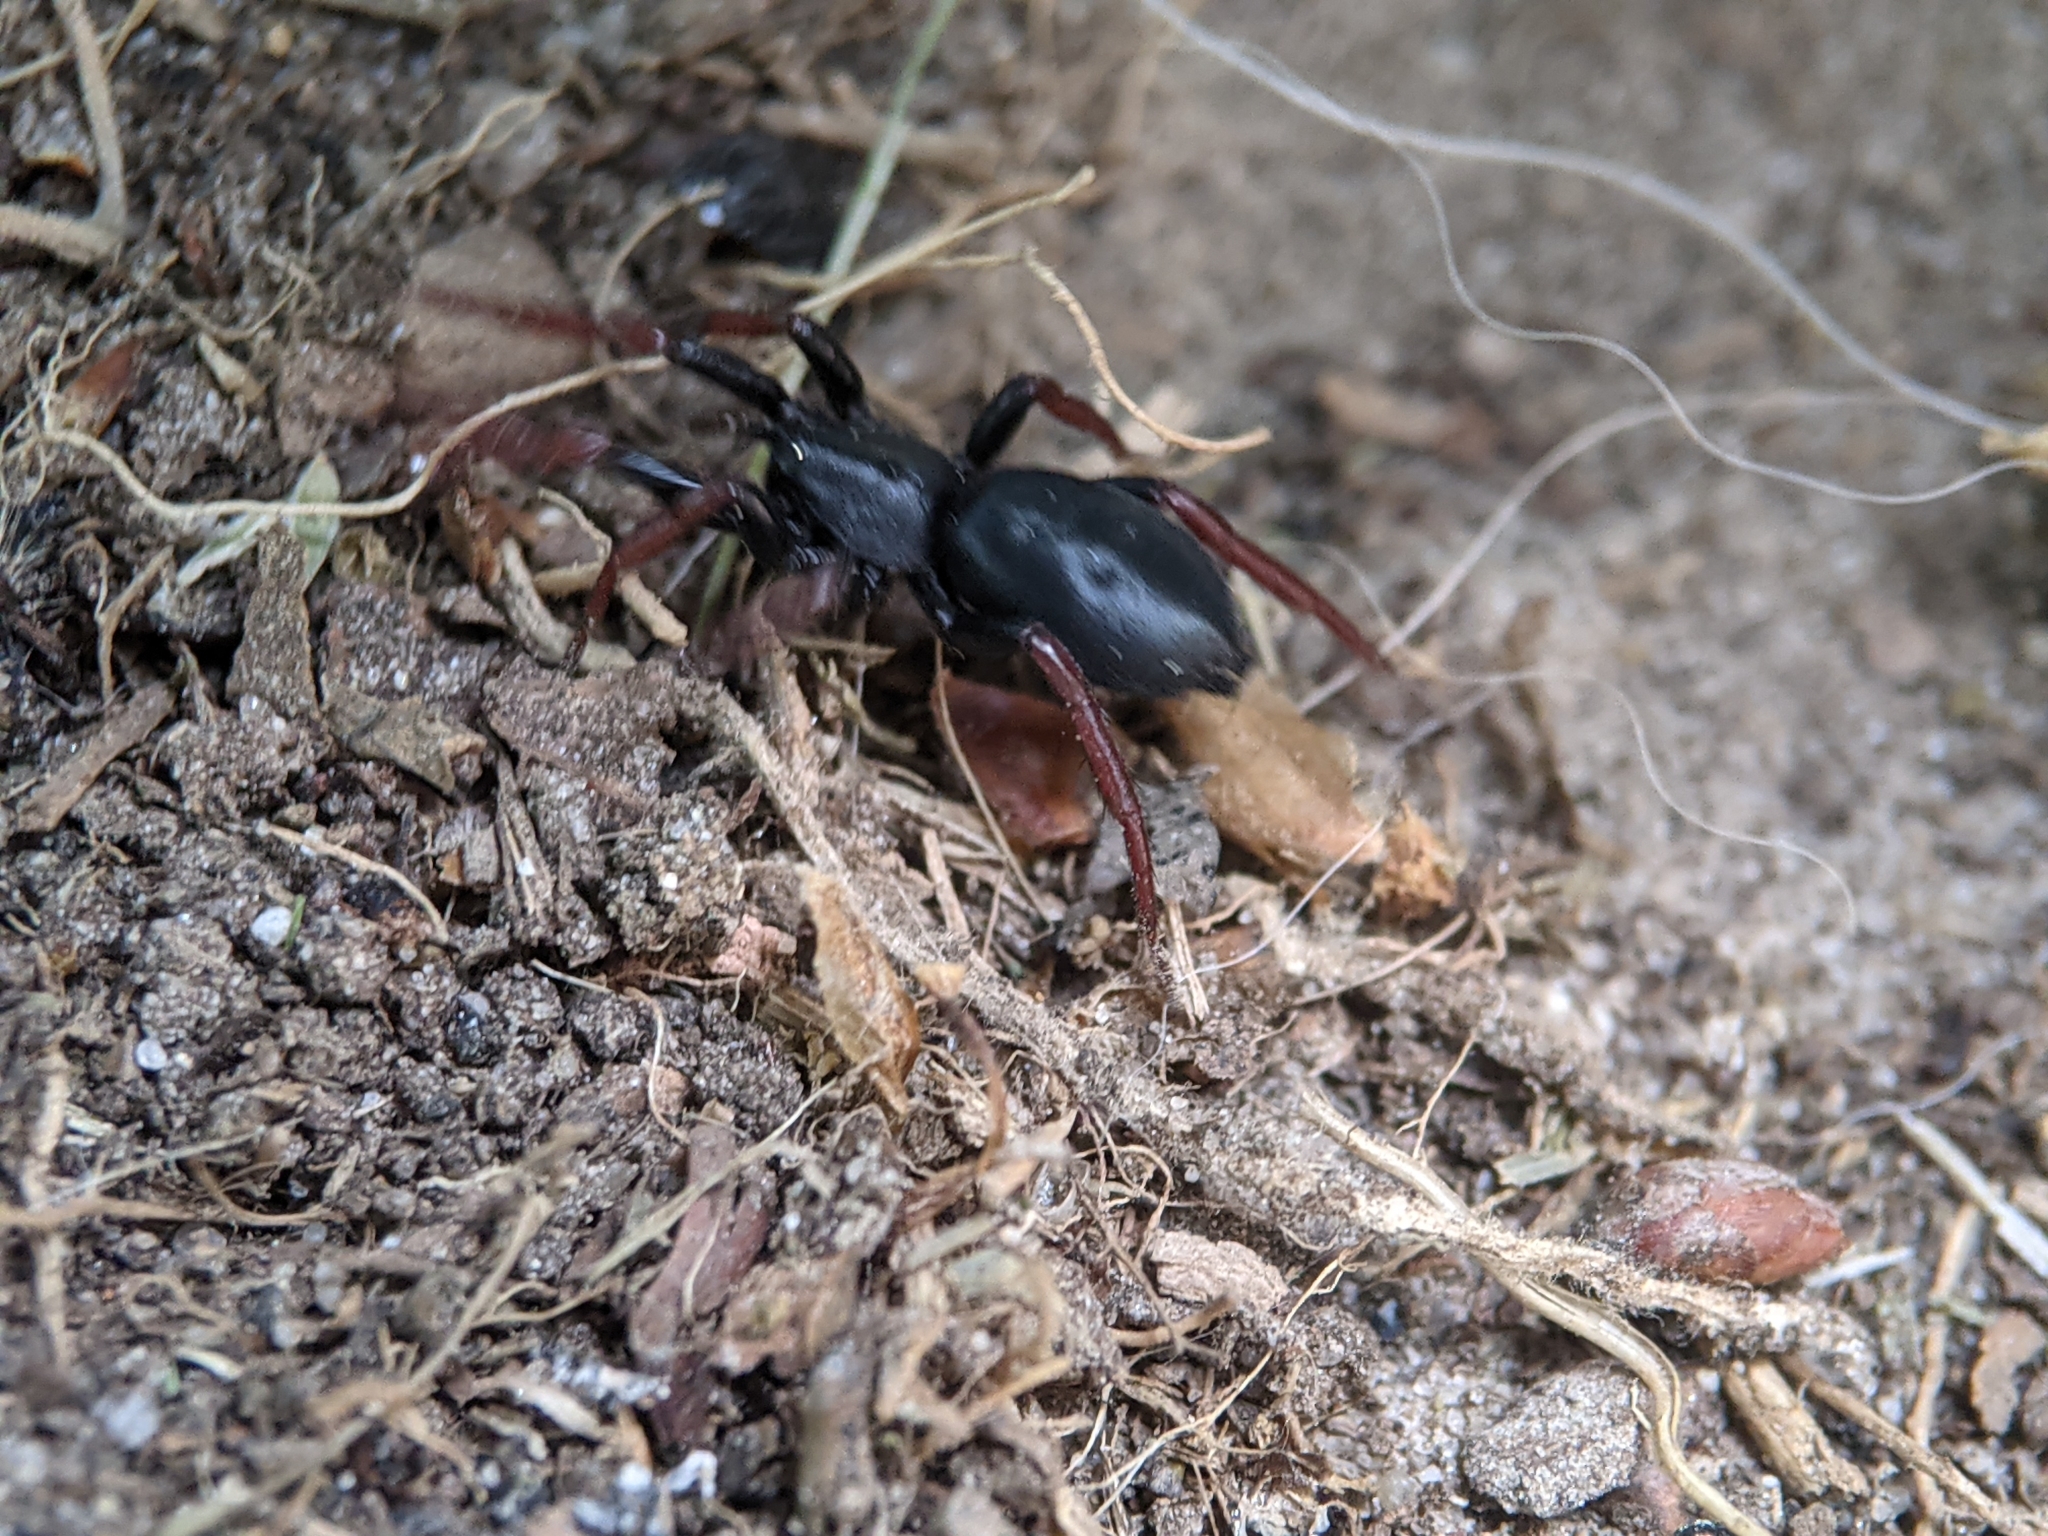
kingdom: Animalia
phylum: Arthropoda
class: Arachnida
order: Araneae
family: Gnaphosidae
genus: Trachyzelotes
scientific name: Trachyzelotes pedestris
